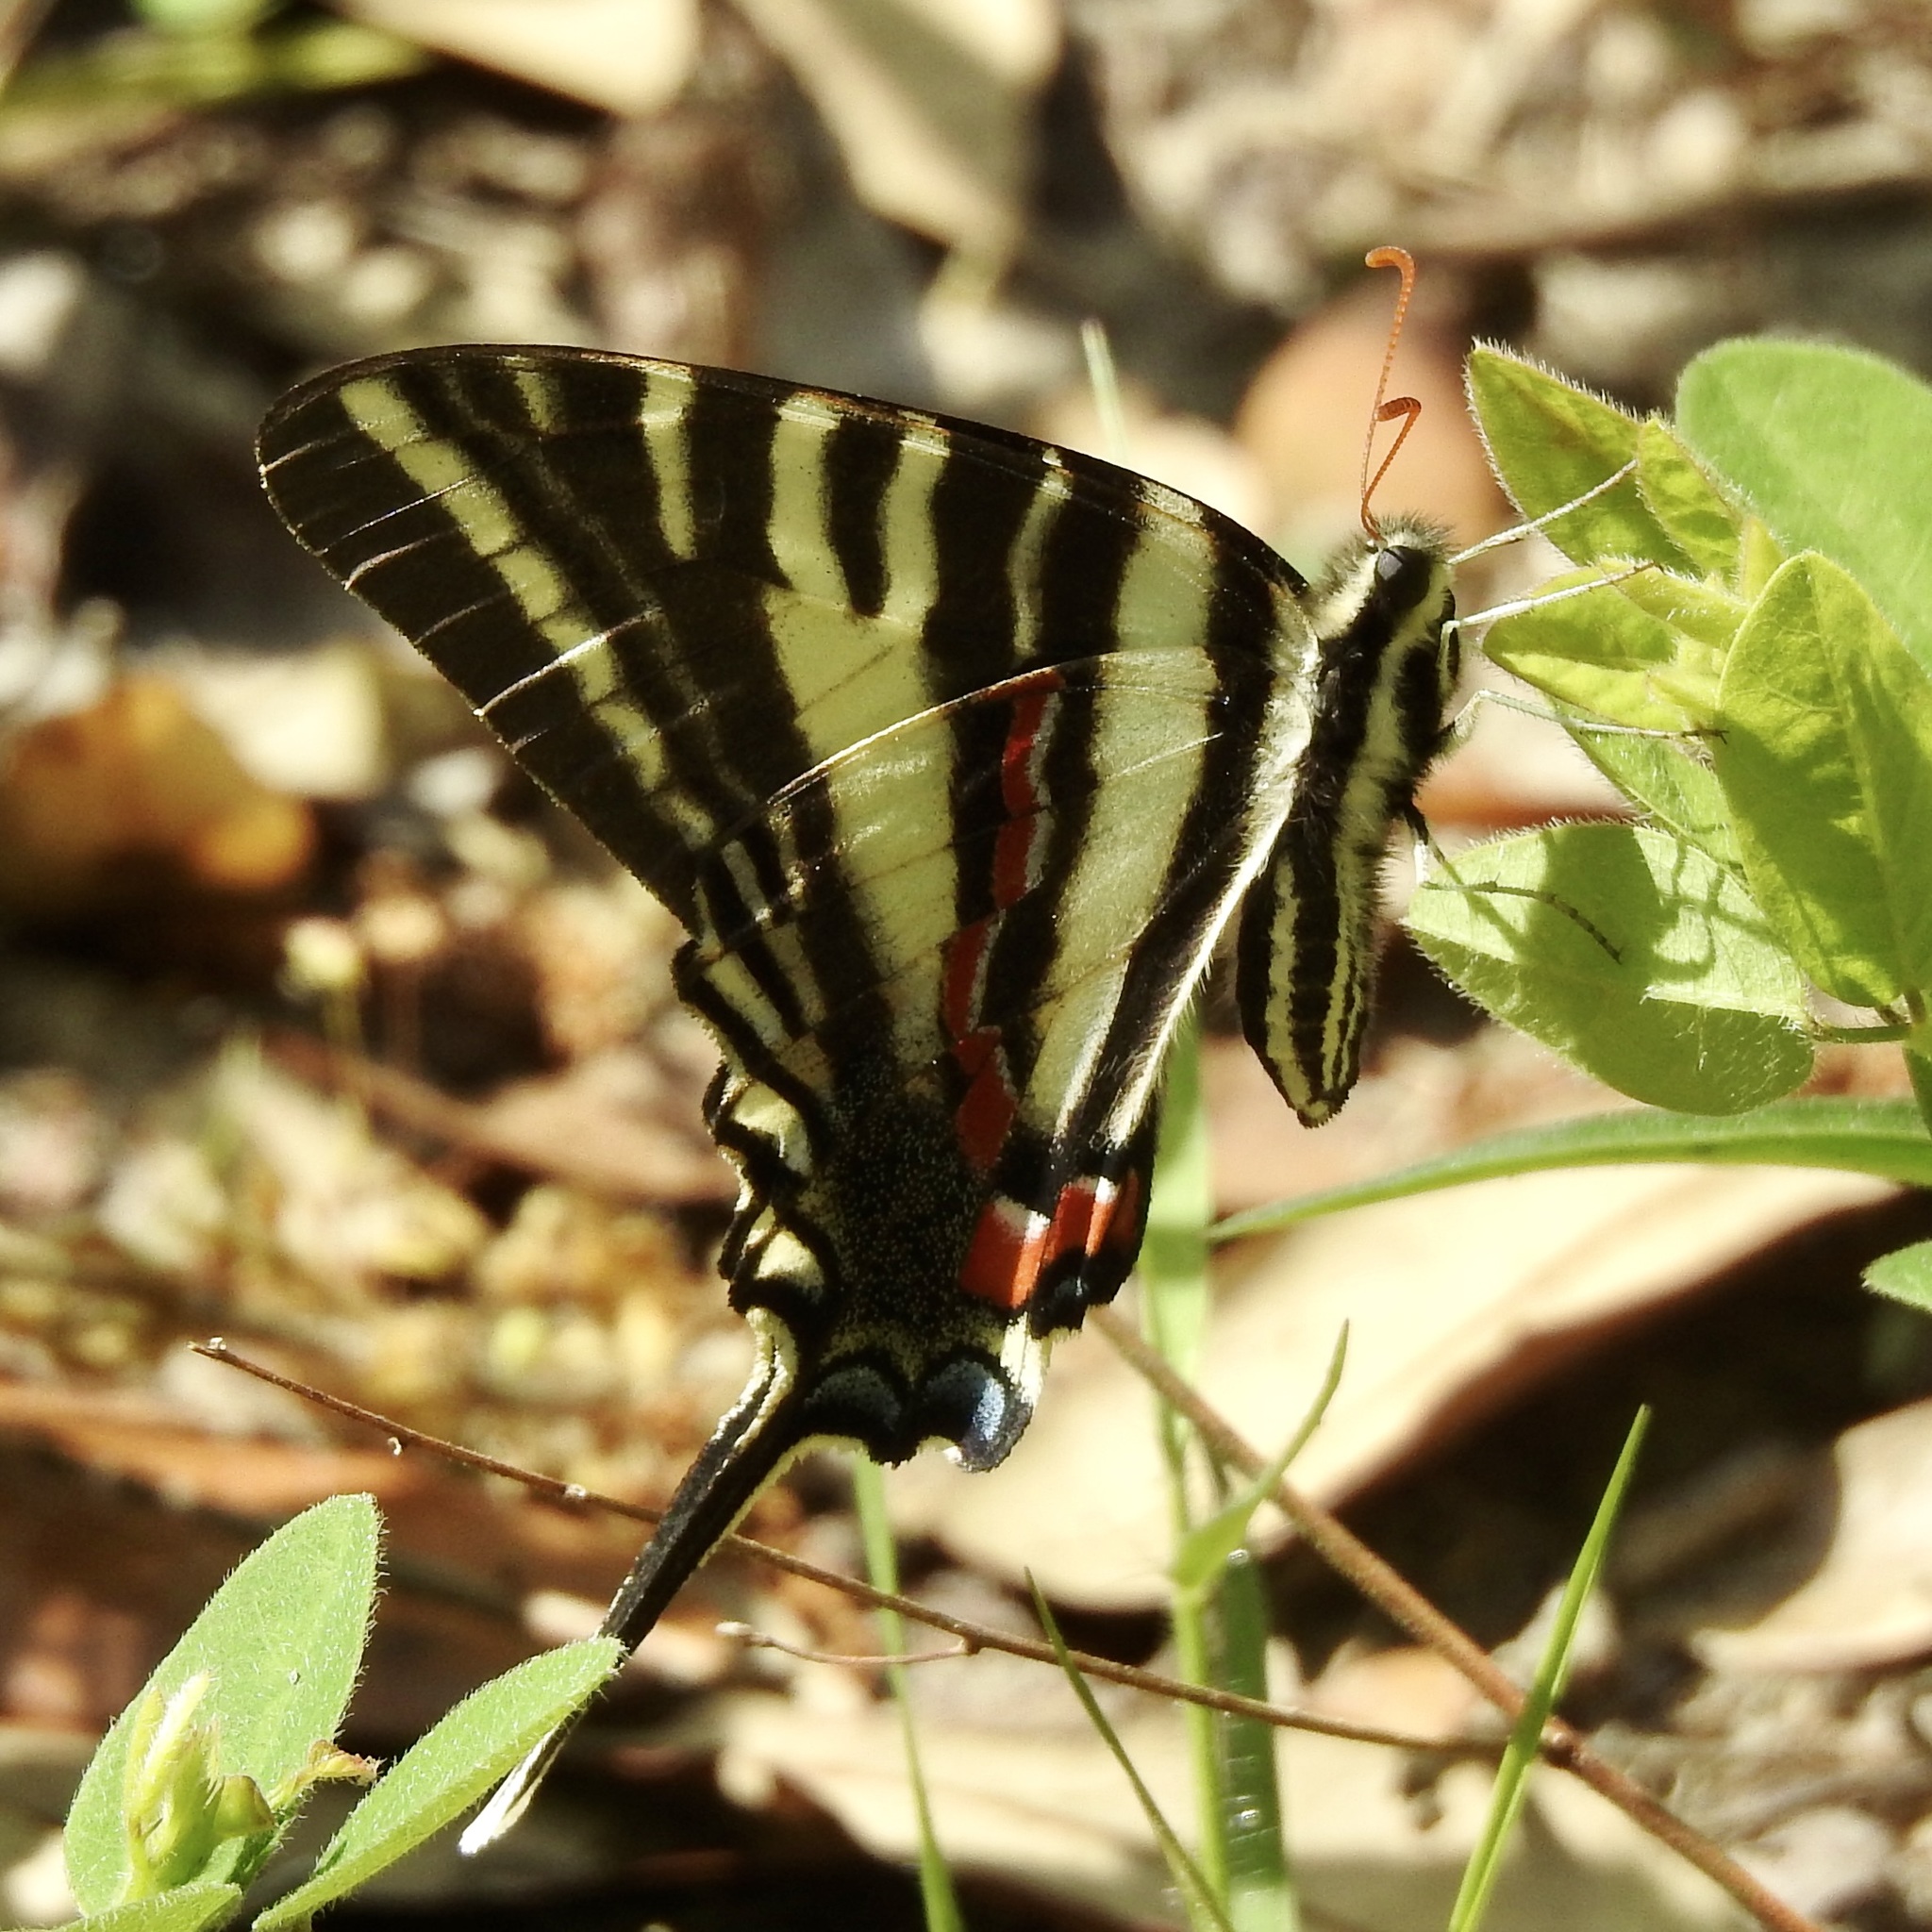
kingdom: Animalia
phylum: Arthropoda
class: Insecta
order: Lepidoptera
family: Papilionidae
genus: Protographium
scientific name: Protographium marcellus
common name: Zebra swallowtail
